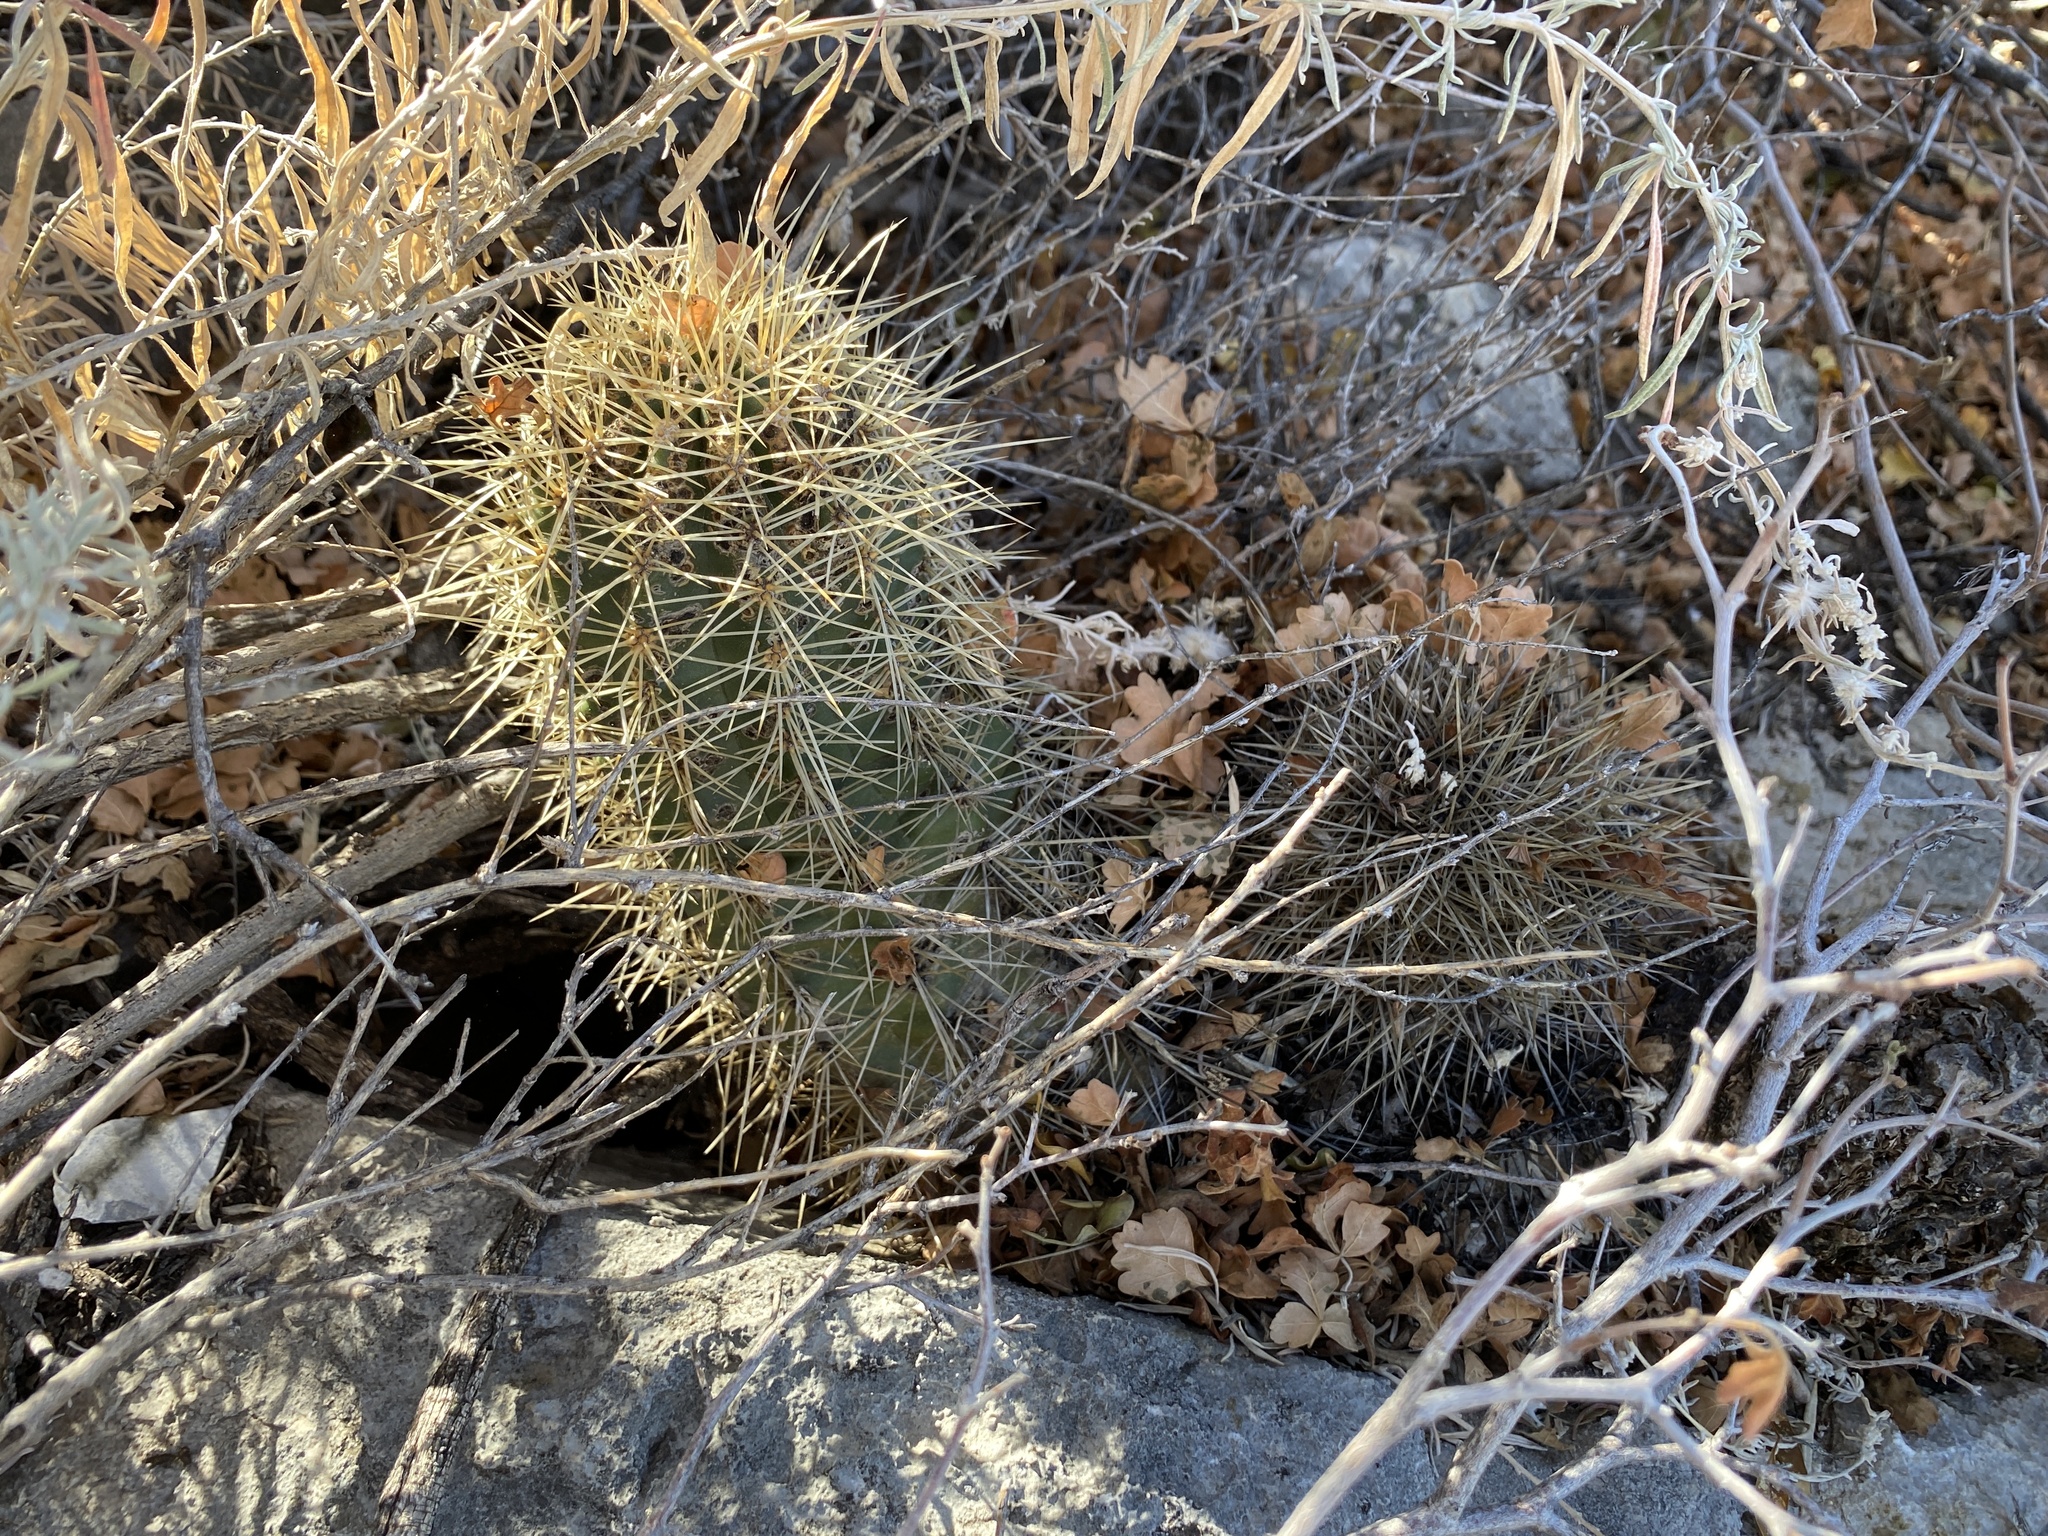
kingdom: Plantae
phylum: Tracheophyta
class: Magnoliopsida
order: Caryophyllales
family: Cactaceae
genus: Echinocereus
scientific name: Echinocereus coccineus
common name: Scarlet hedgehog cactus
